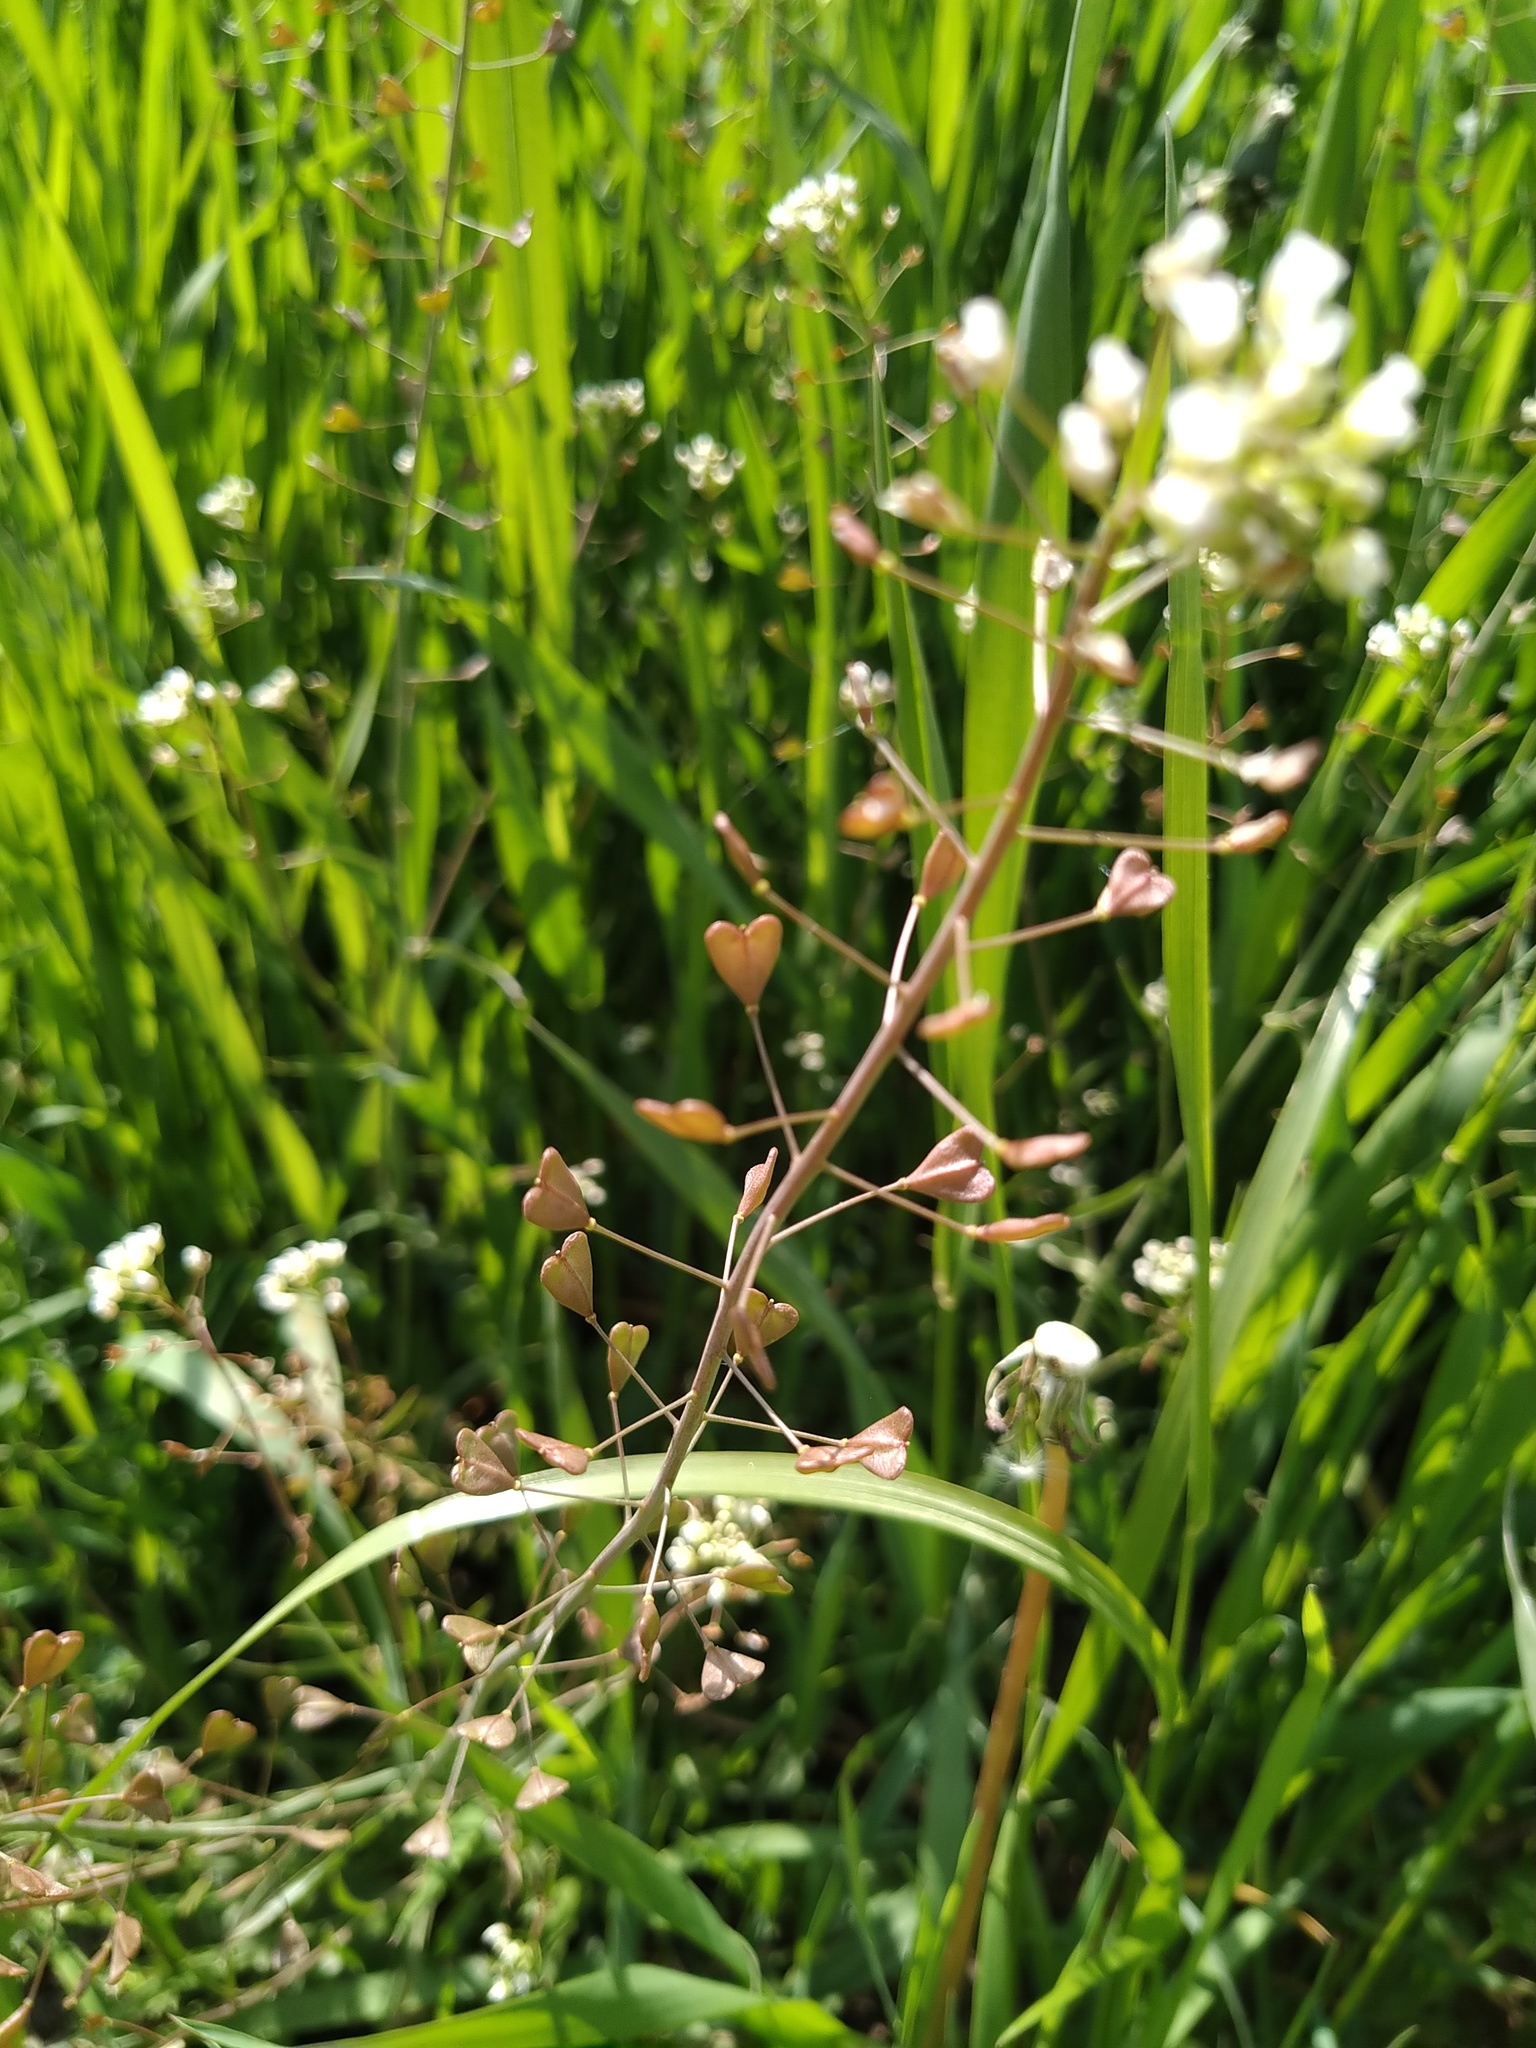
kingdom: Plantae
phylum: Tracheophyta
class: Magnoliopsida
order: Brassicales
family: Brassicaceae
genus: Capsella
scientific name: Capsella bursa-pastoris
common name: Shepherd's purse
